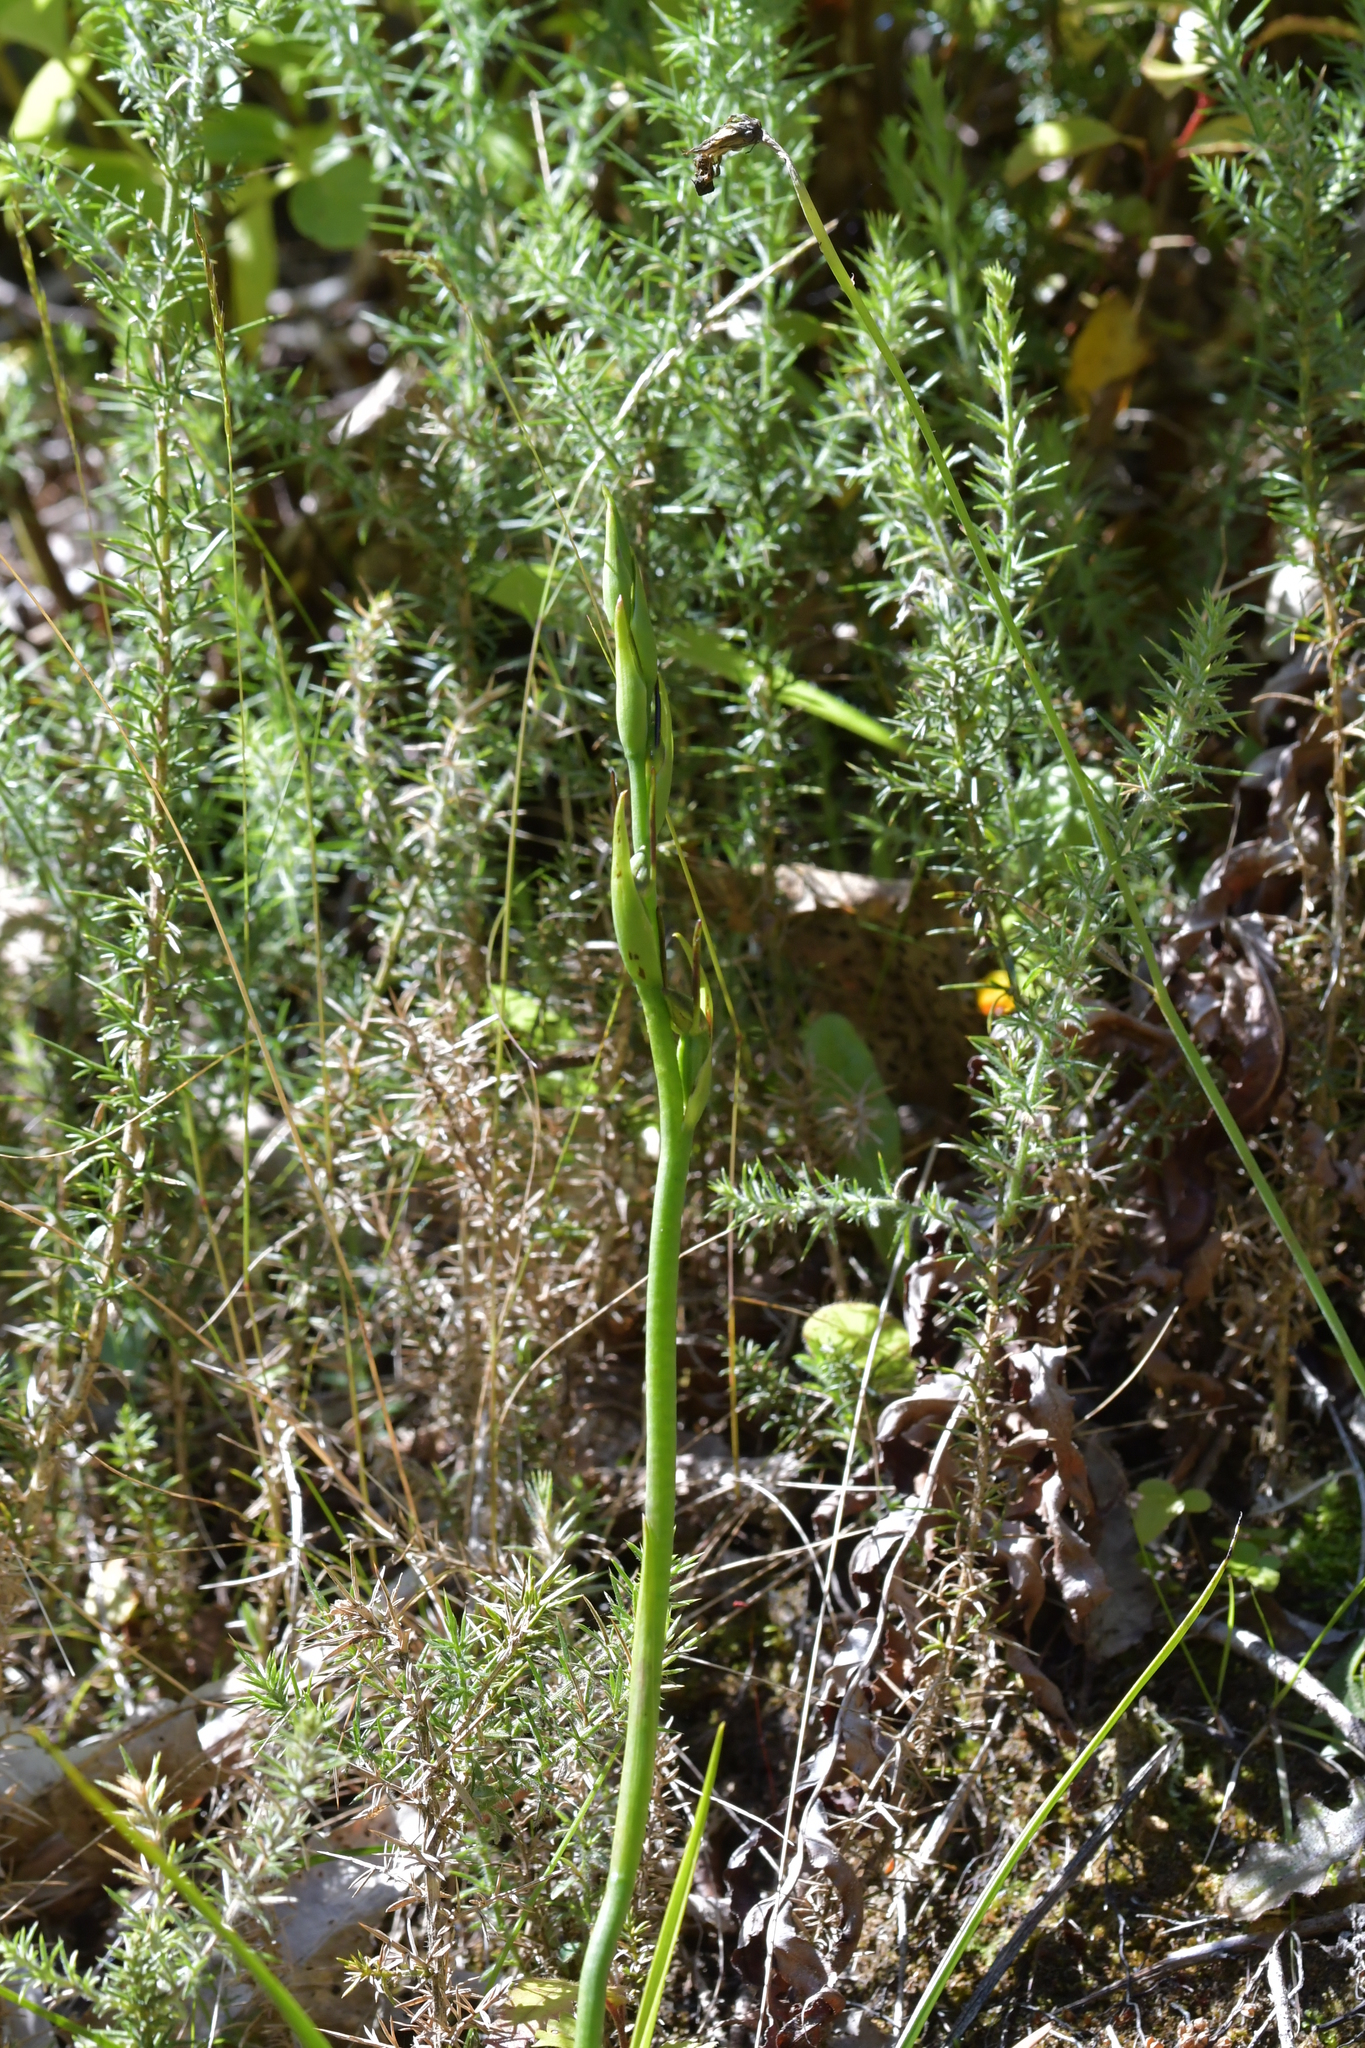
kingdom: Plantae
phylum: Tracheophyta
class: Liliopsida
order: Asparagales
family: Orchidaceae
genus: Orthoceras
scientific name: Orthoceras novae-zeelandiae
